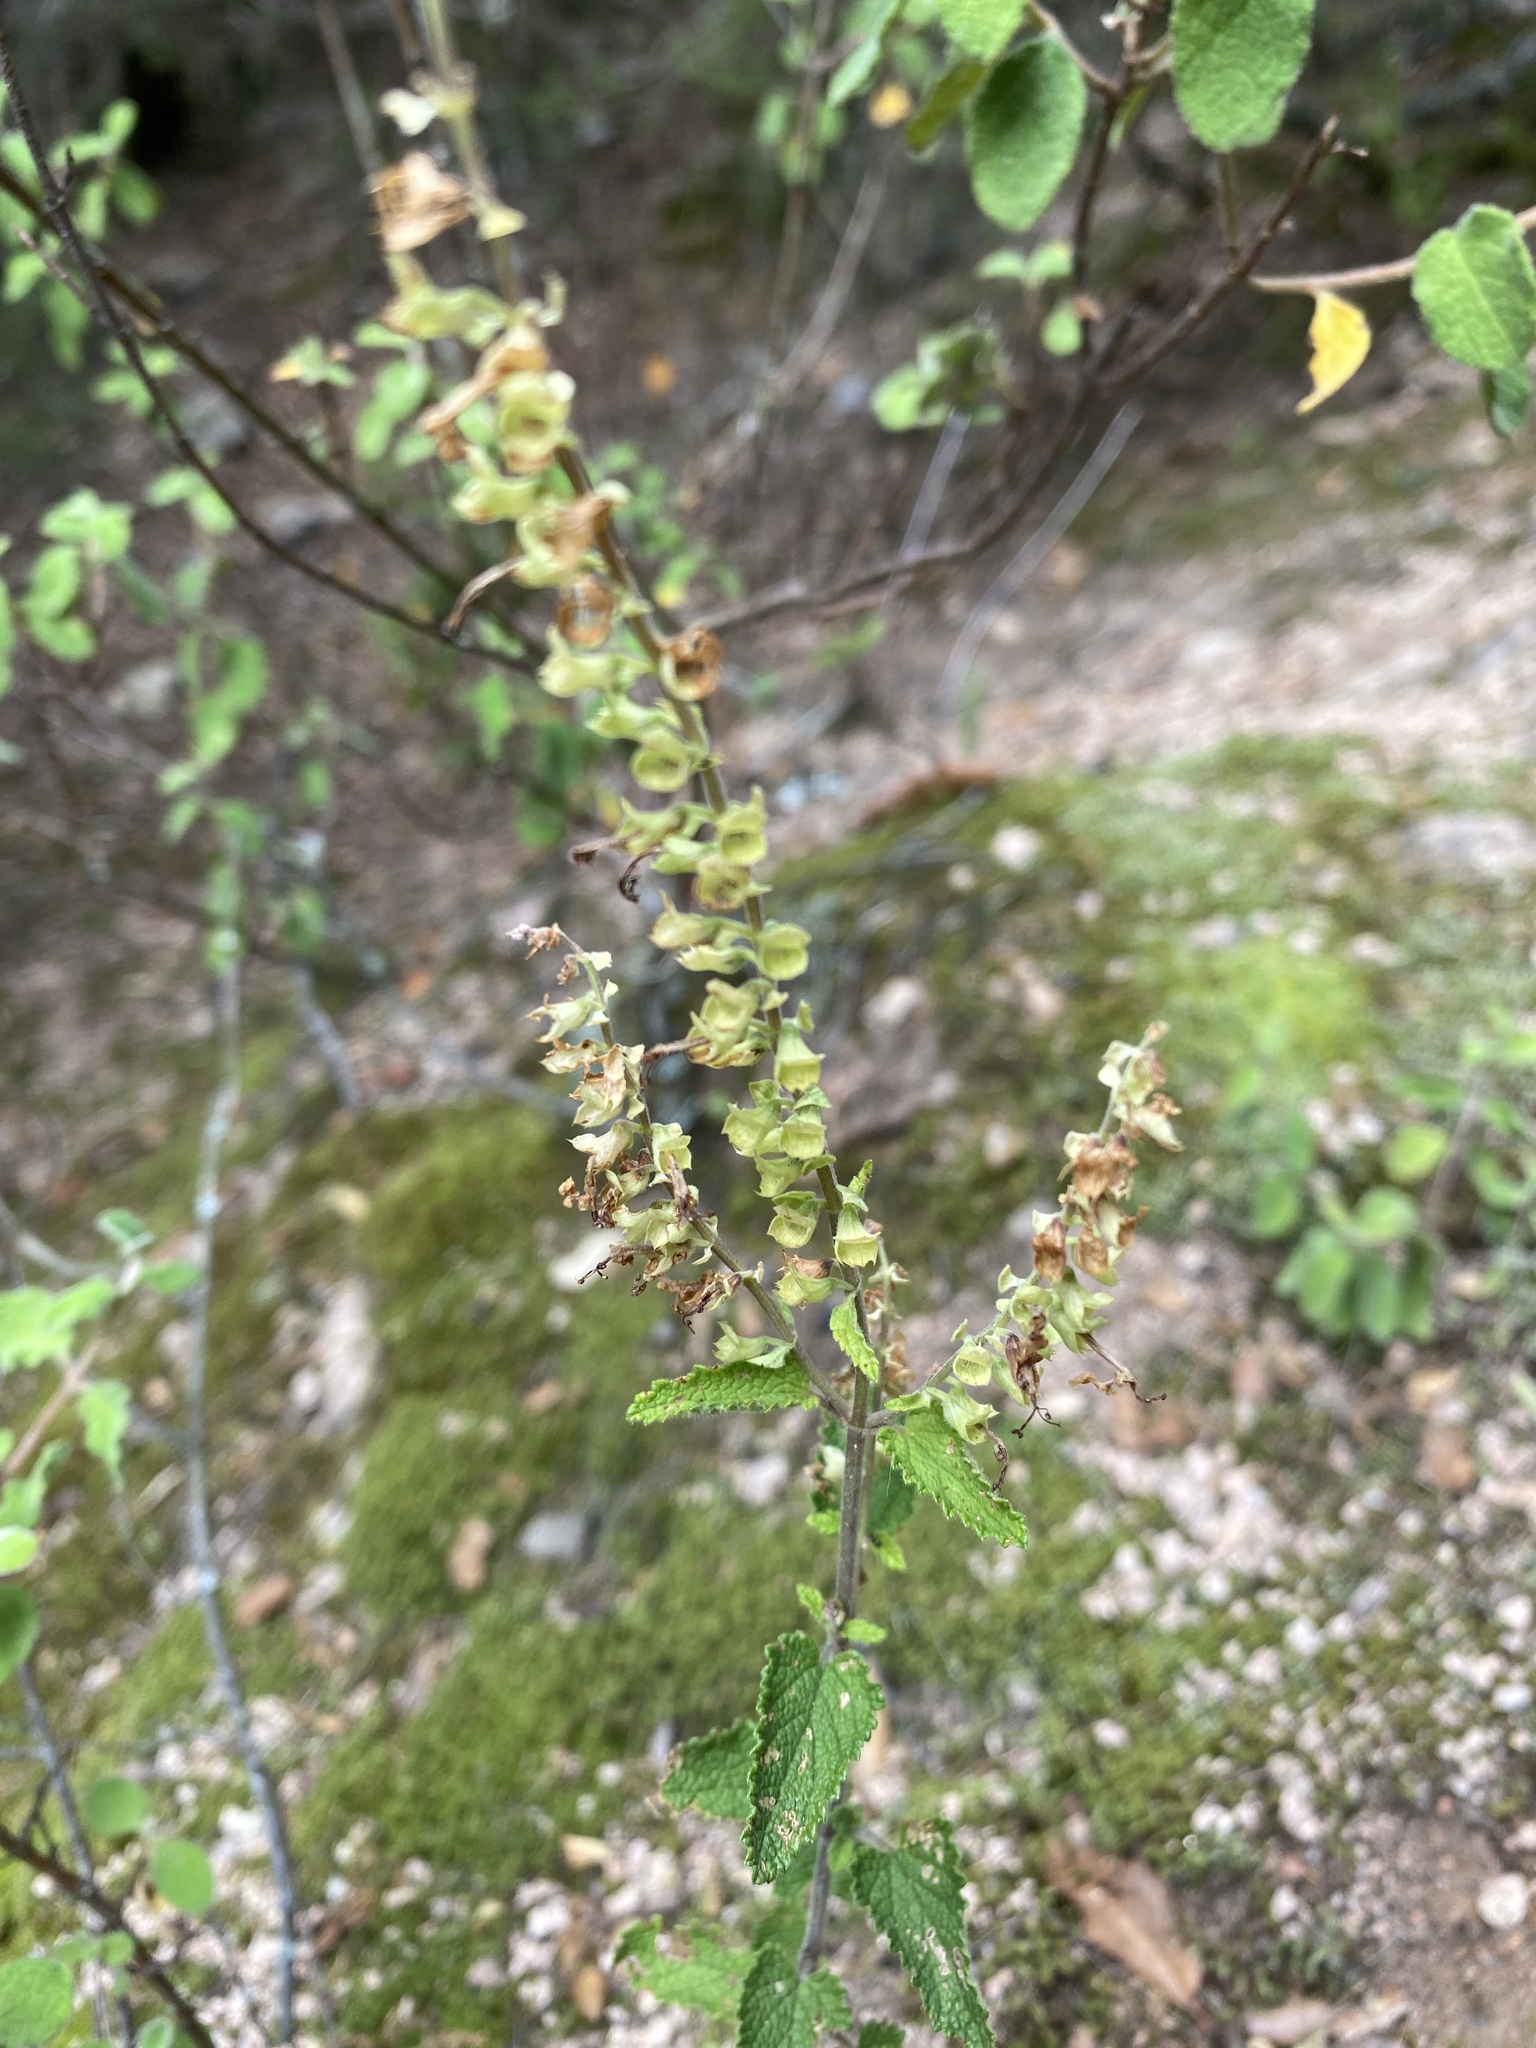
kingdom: Plantae
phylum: Tracheophyta
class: Magnoliopsida
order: Lamiales
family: Lamiaceae
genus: Teucrium
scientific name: Teucrium scorodonia
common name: Woodland germander
